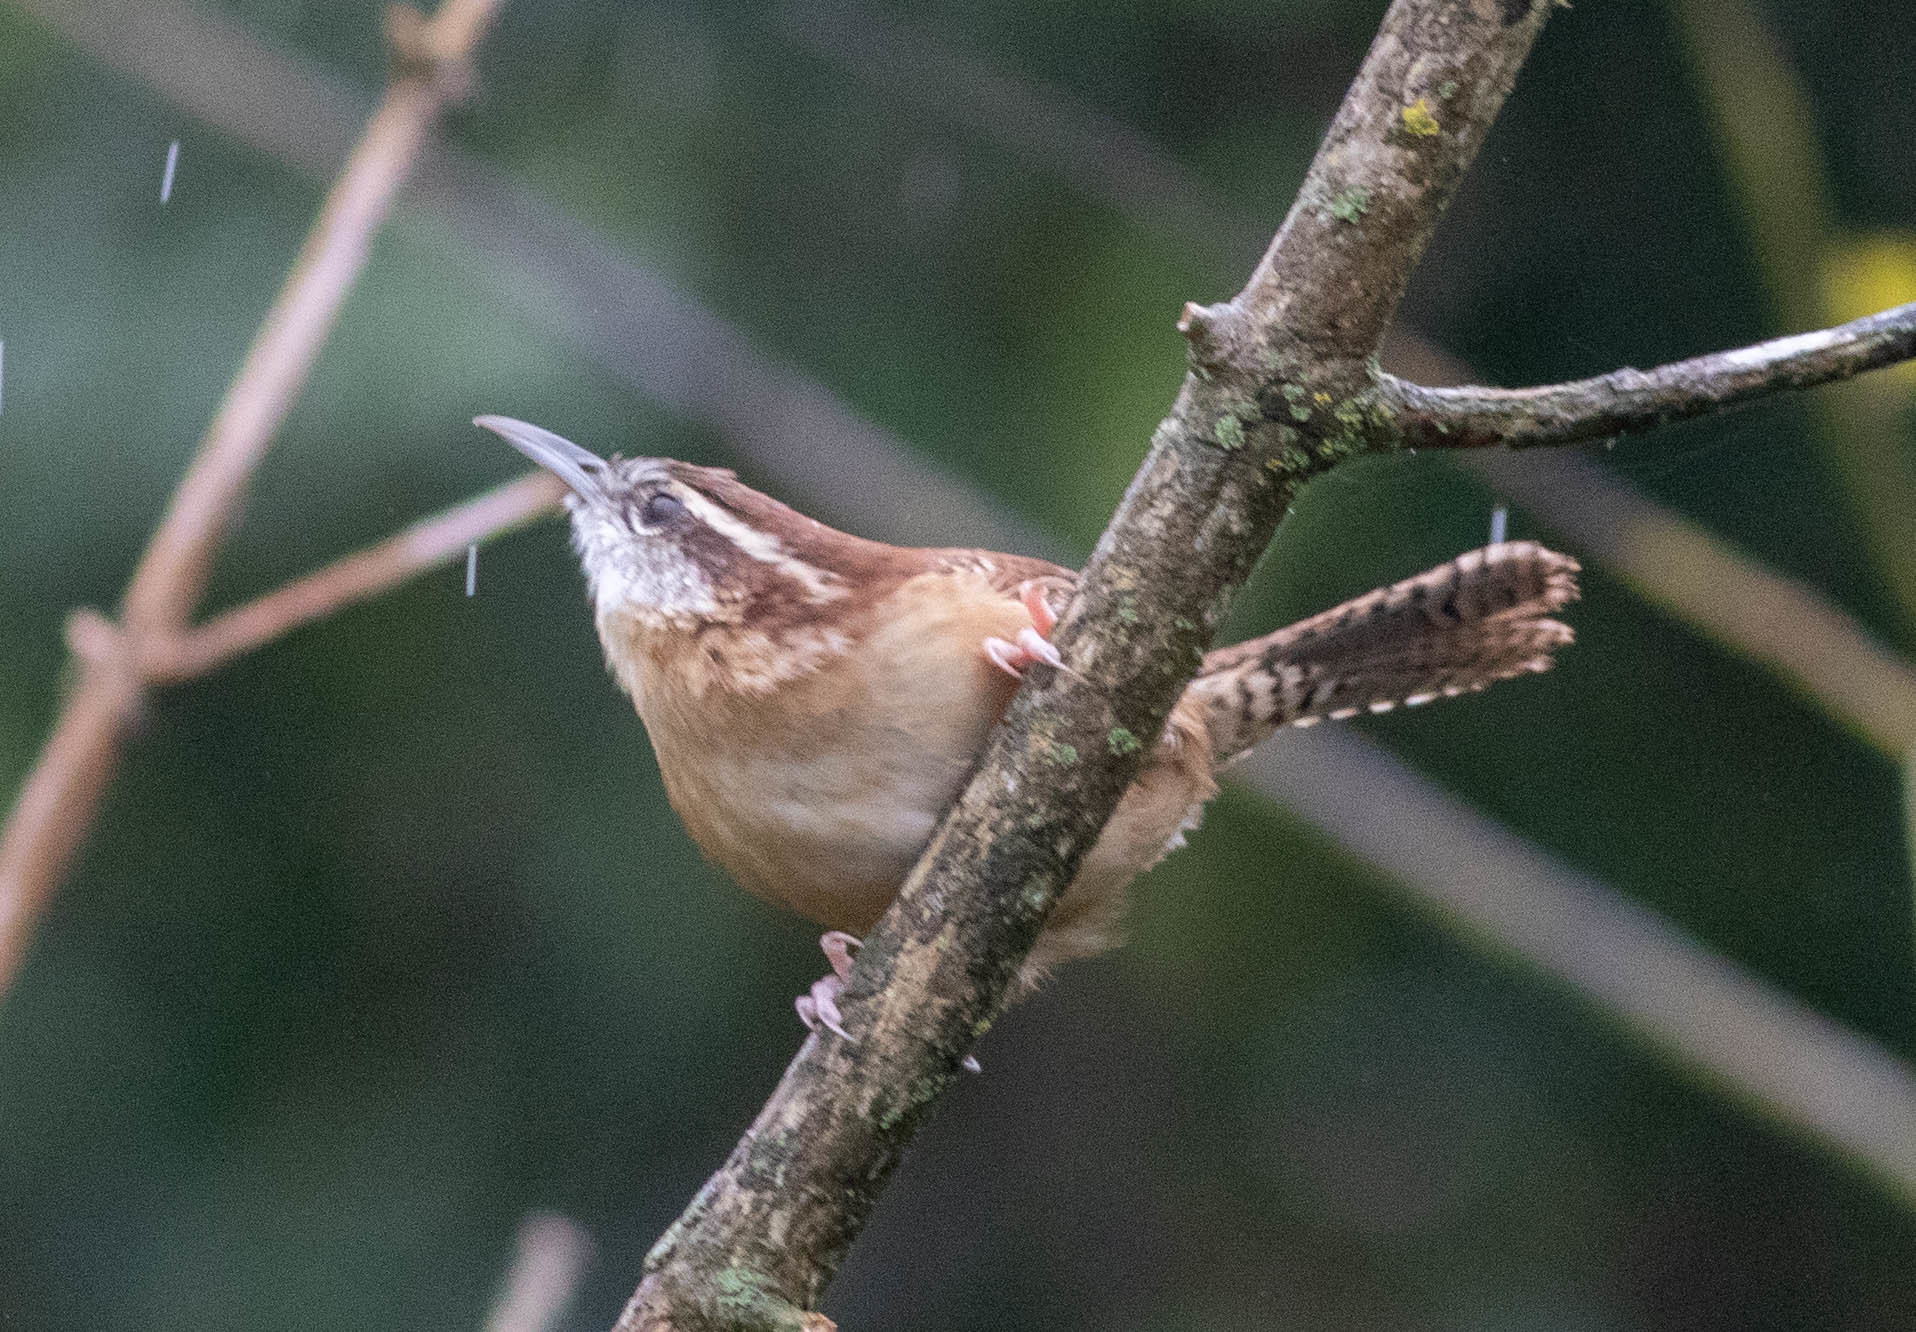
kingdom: Animalia
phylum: Chordata
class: Aves
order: Passeriformes
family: Troglodytidae
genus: Thryothorus
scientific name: Thryothorus ludovicianus
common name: Carolina wren
